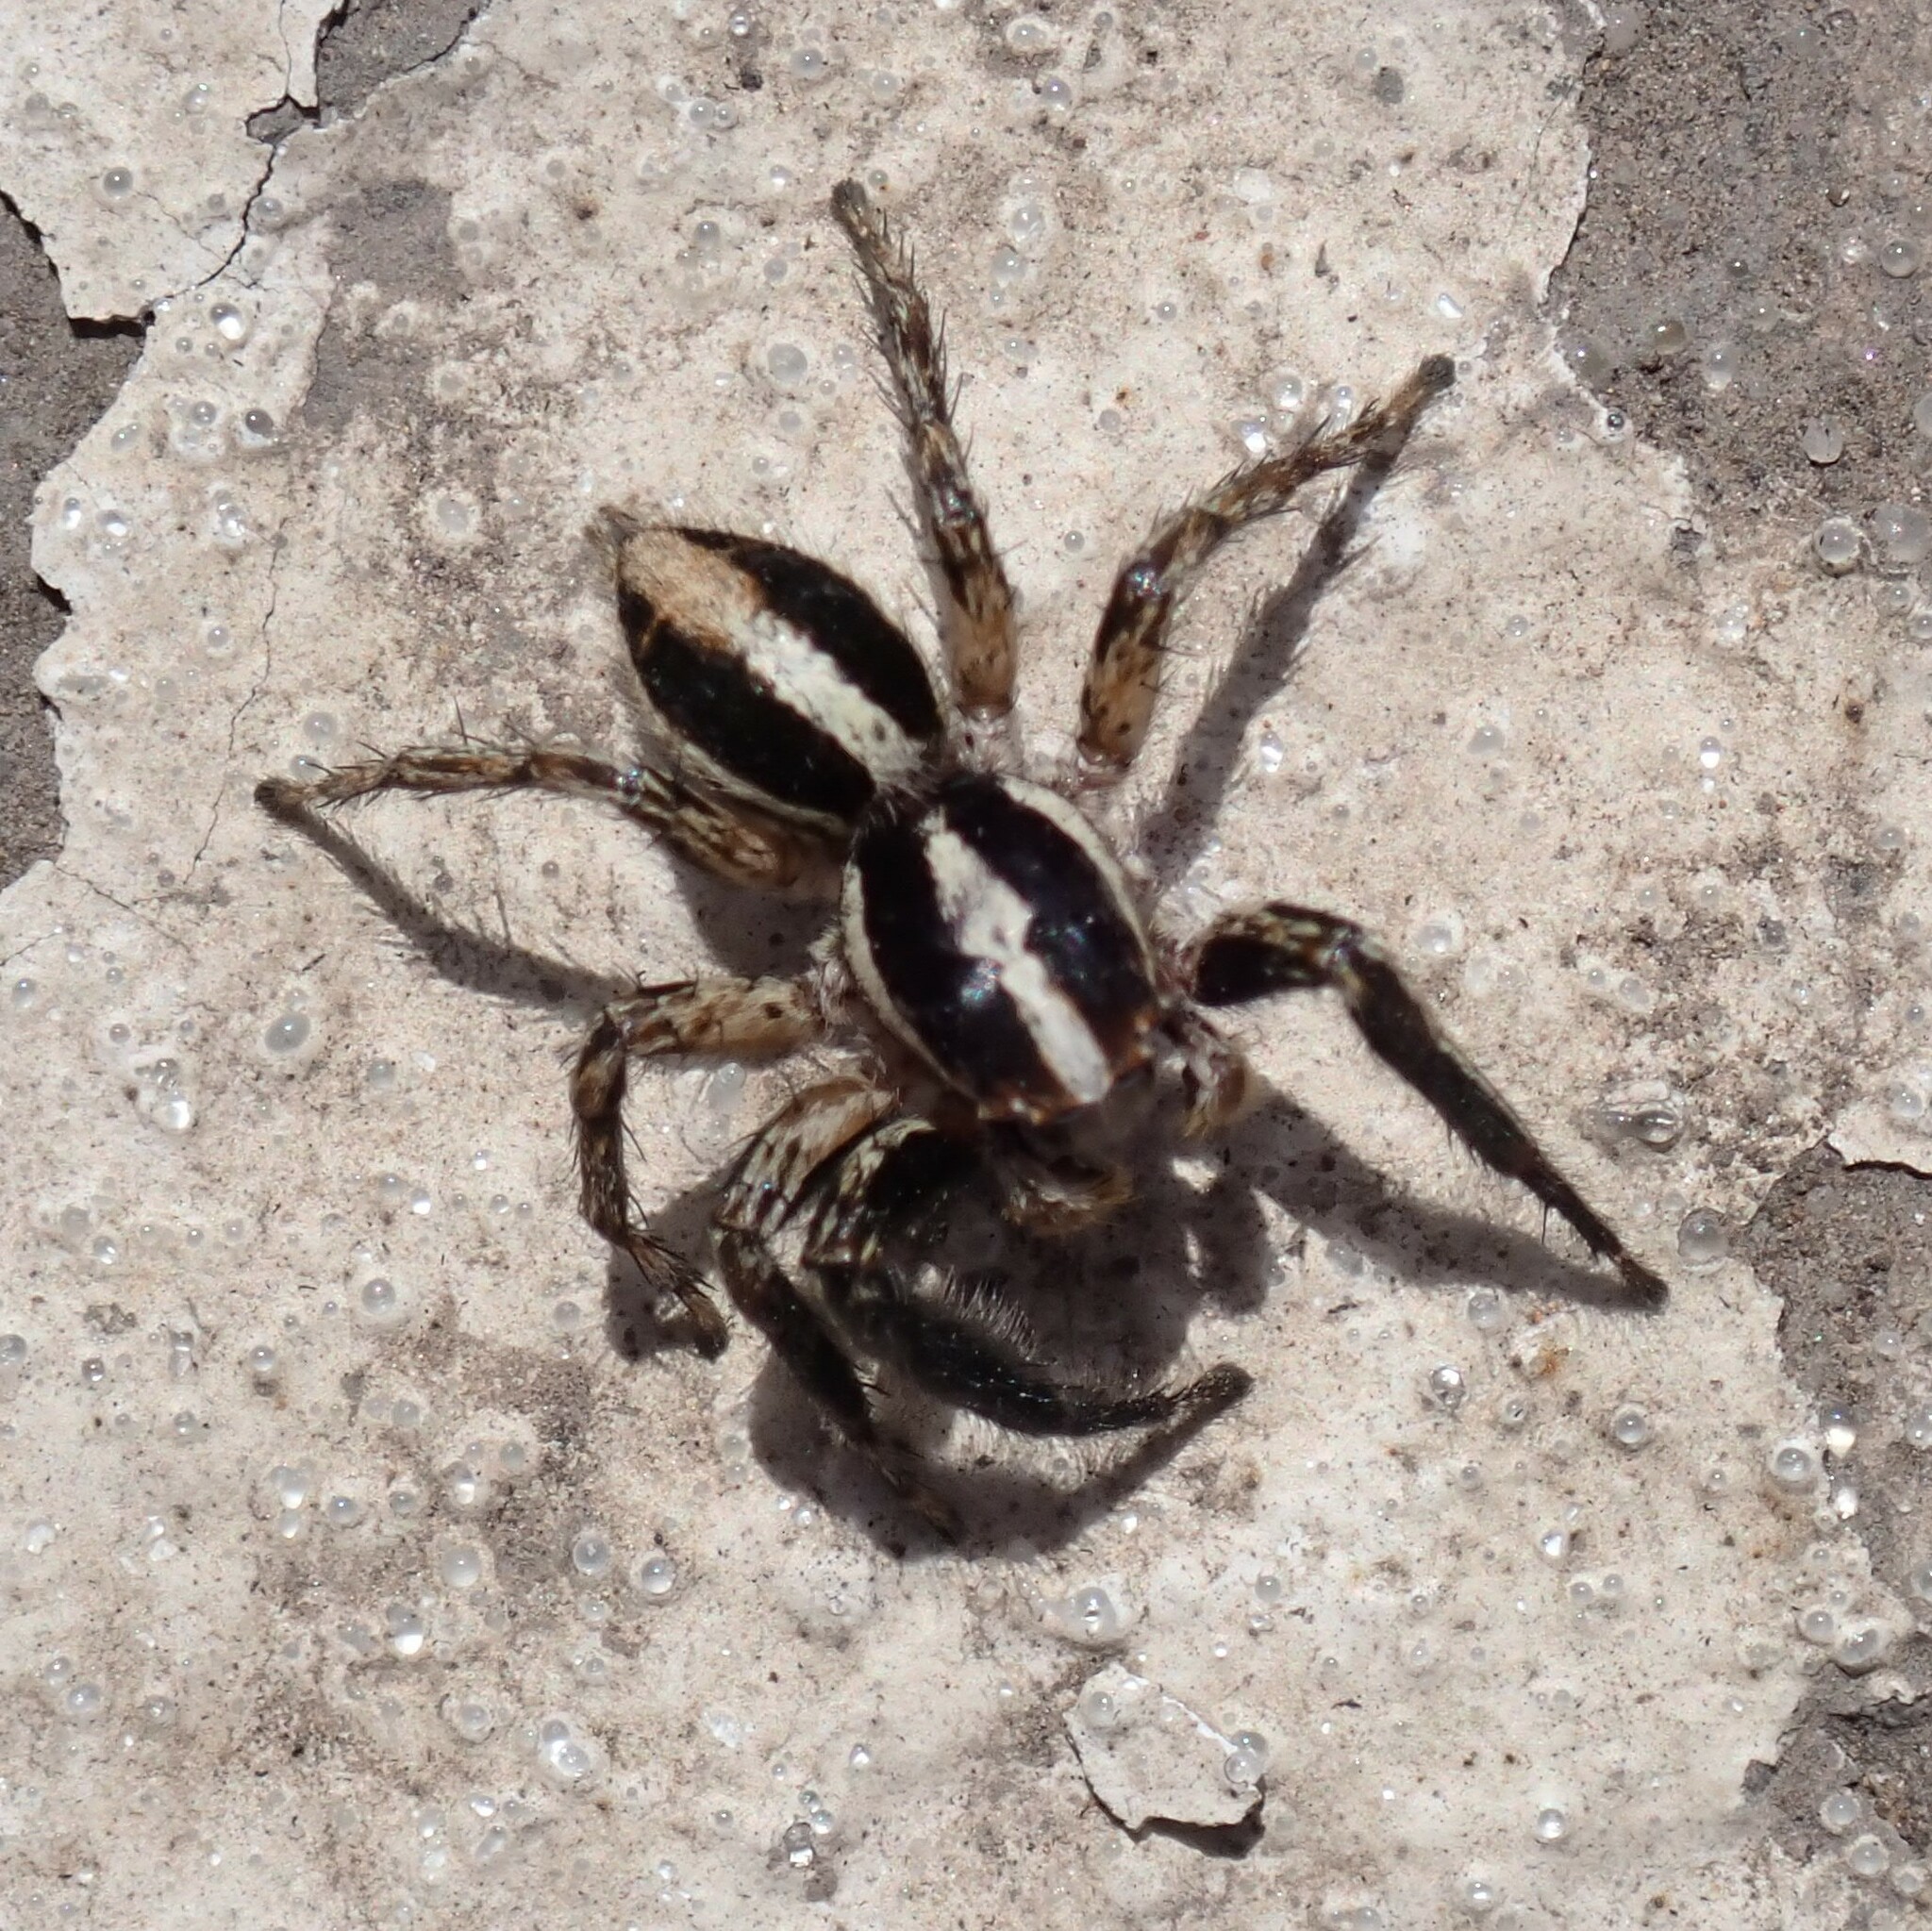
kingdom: Animalia
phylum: Arthropoda
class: Arachnida
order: Araneae
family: Salticidae
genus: Plexippus
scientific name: Plexippus paykulli
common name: Pantropical jumper
